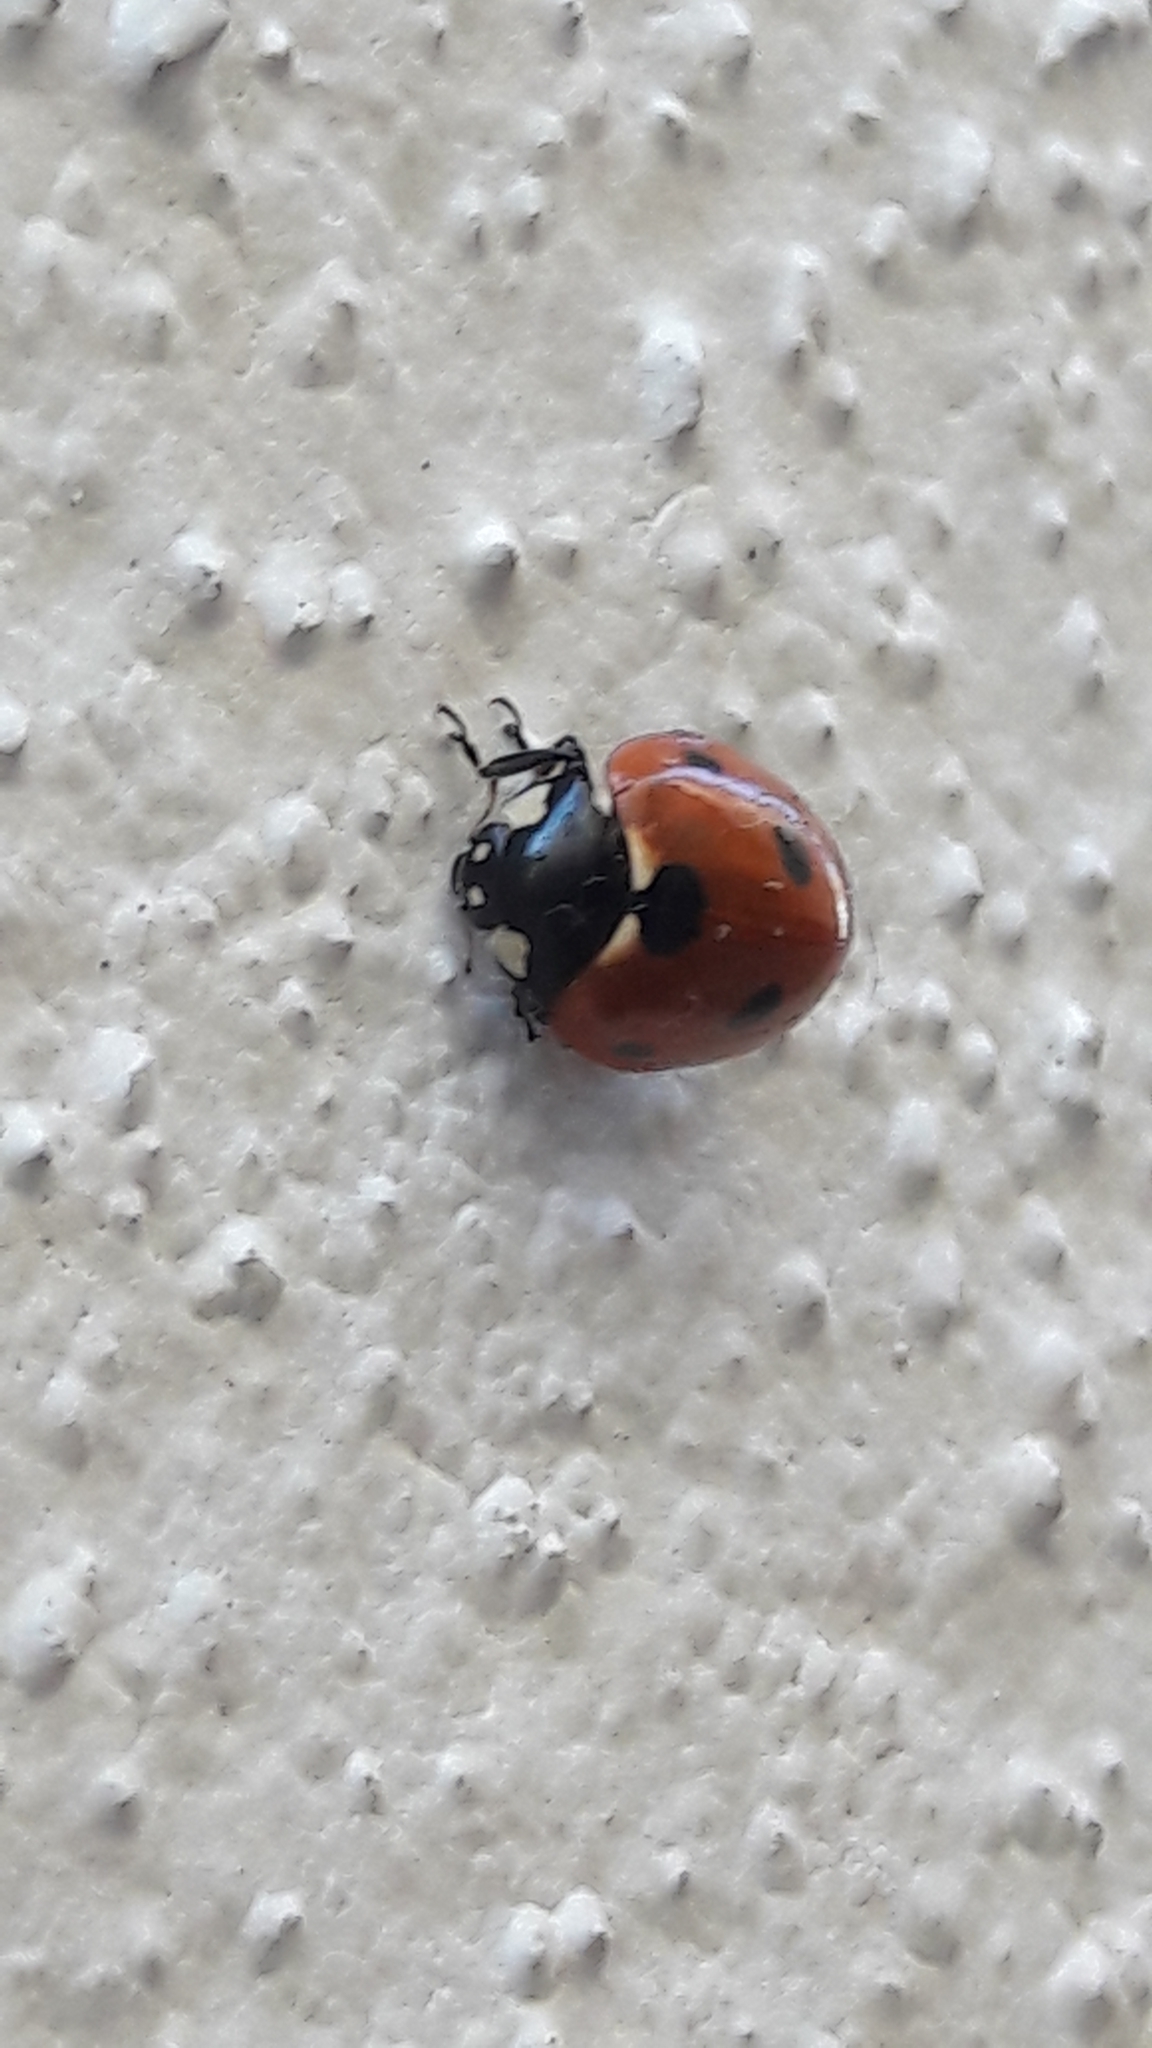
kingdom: Animalia
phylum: Arthropoda
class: Insecta
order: Coleoptera
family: Coccinellidae
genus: Coccinella
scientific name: Coccinella septempunctata
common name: Sevenspotted lady beetle
